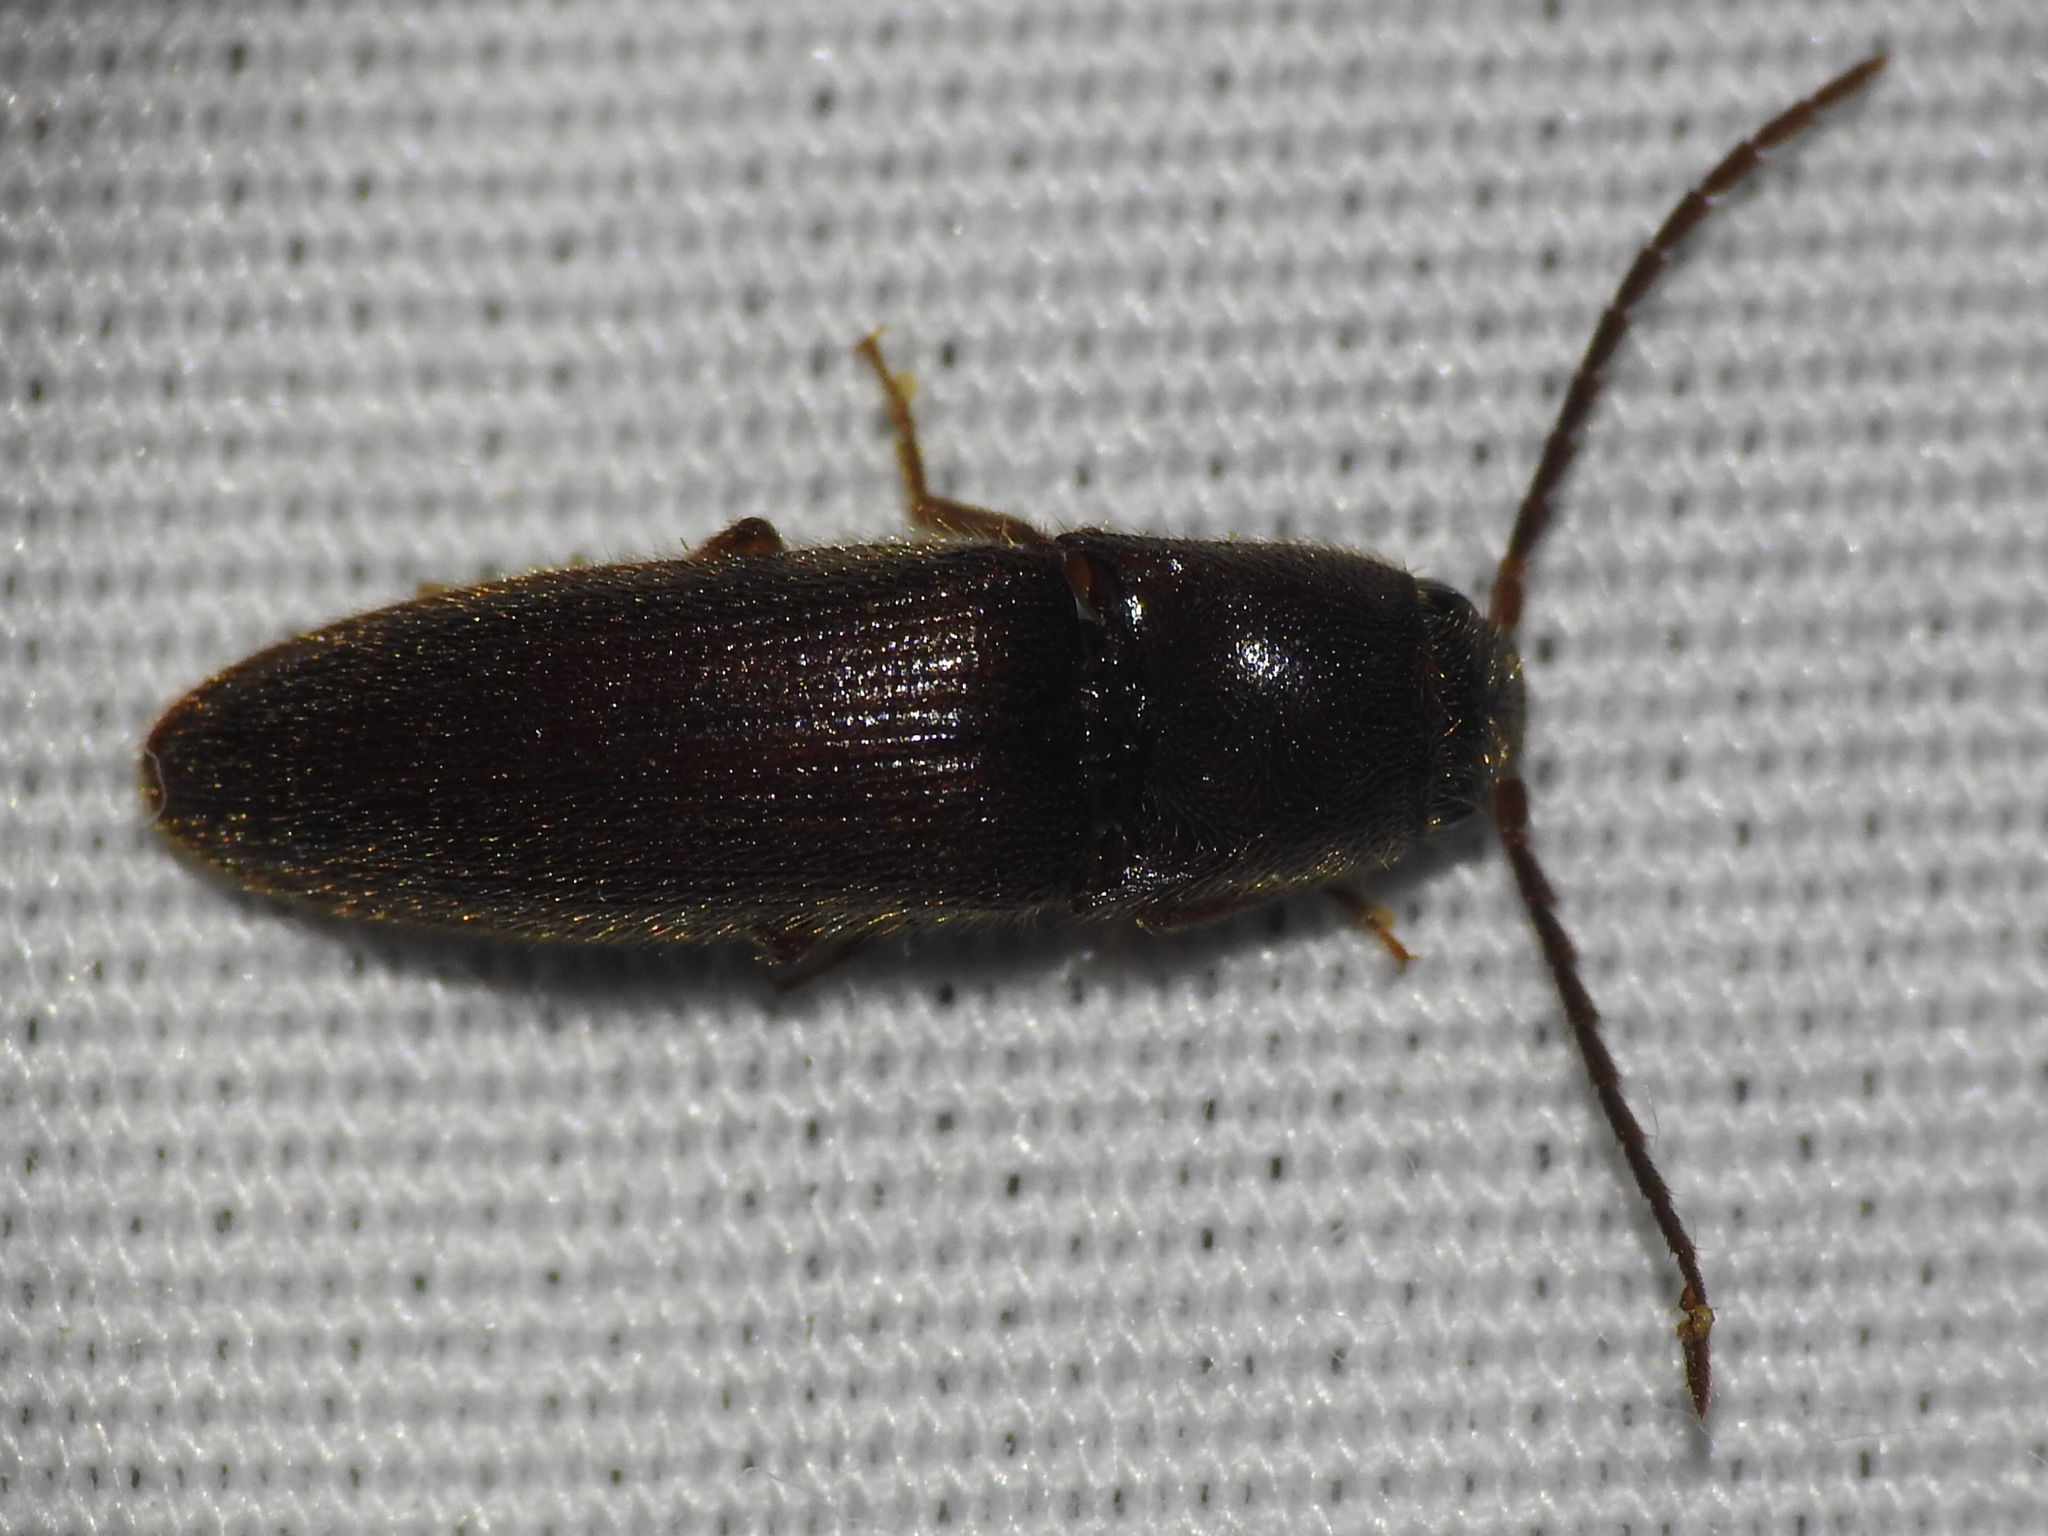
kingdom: Animalia
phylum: Arthropoda
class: Insecta
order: Coleoptera
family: Elateridae
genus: Dipropus
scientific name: Dipropus
